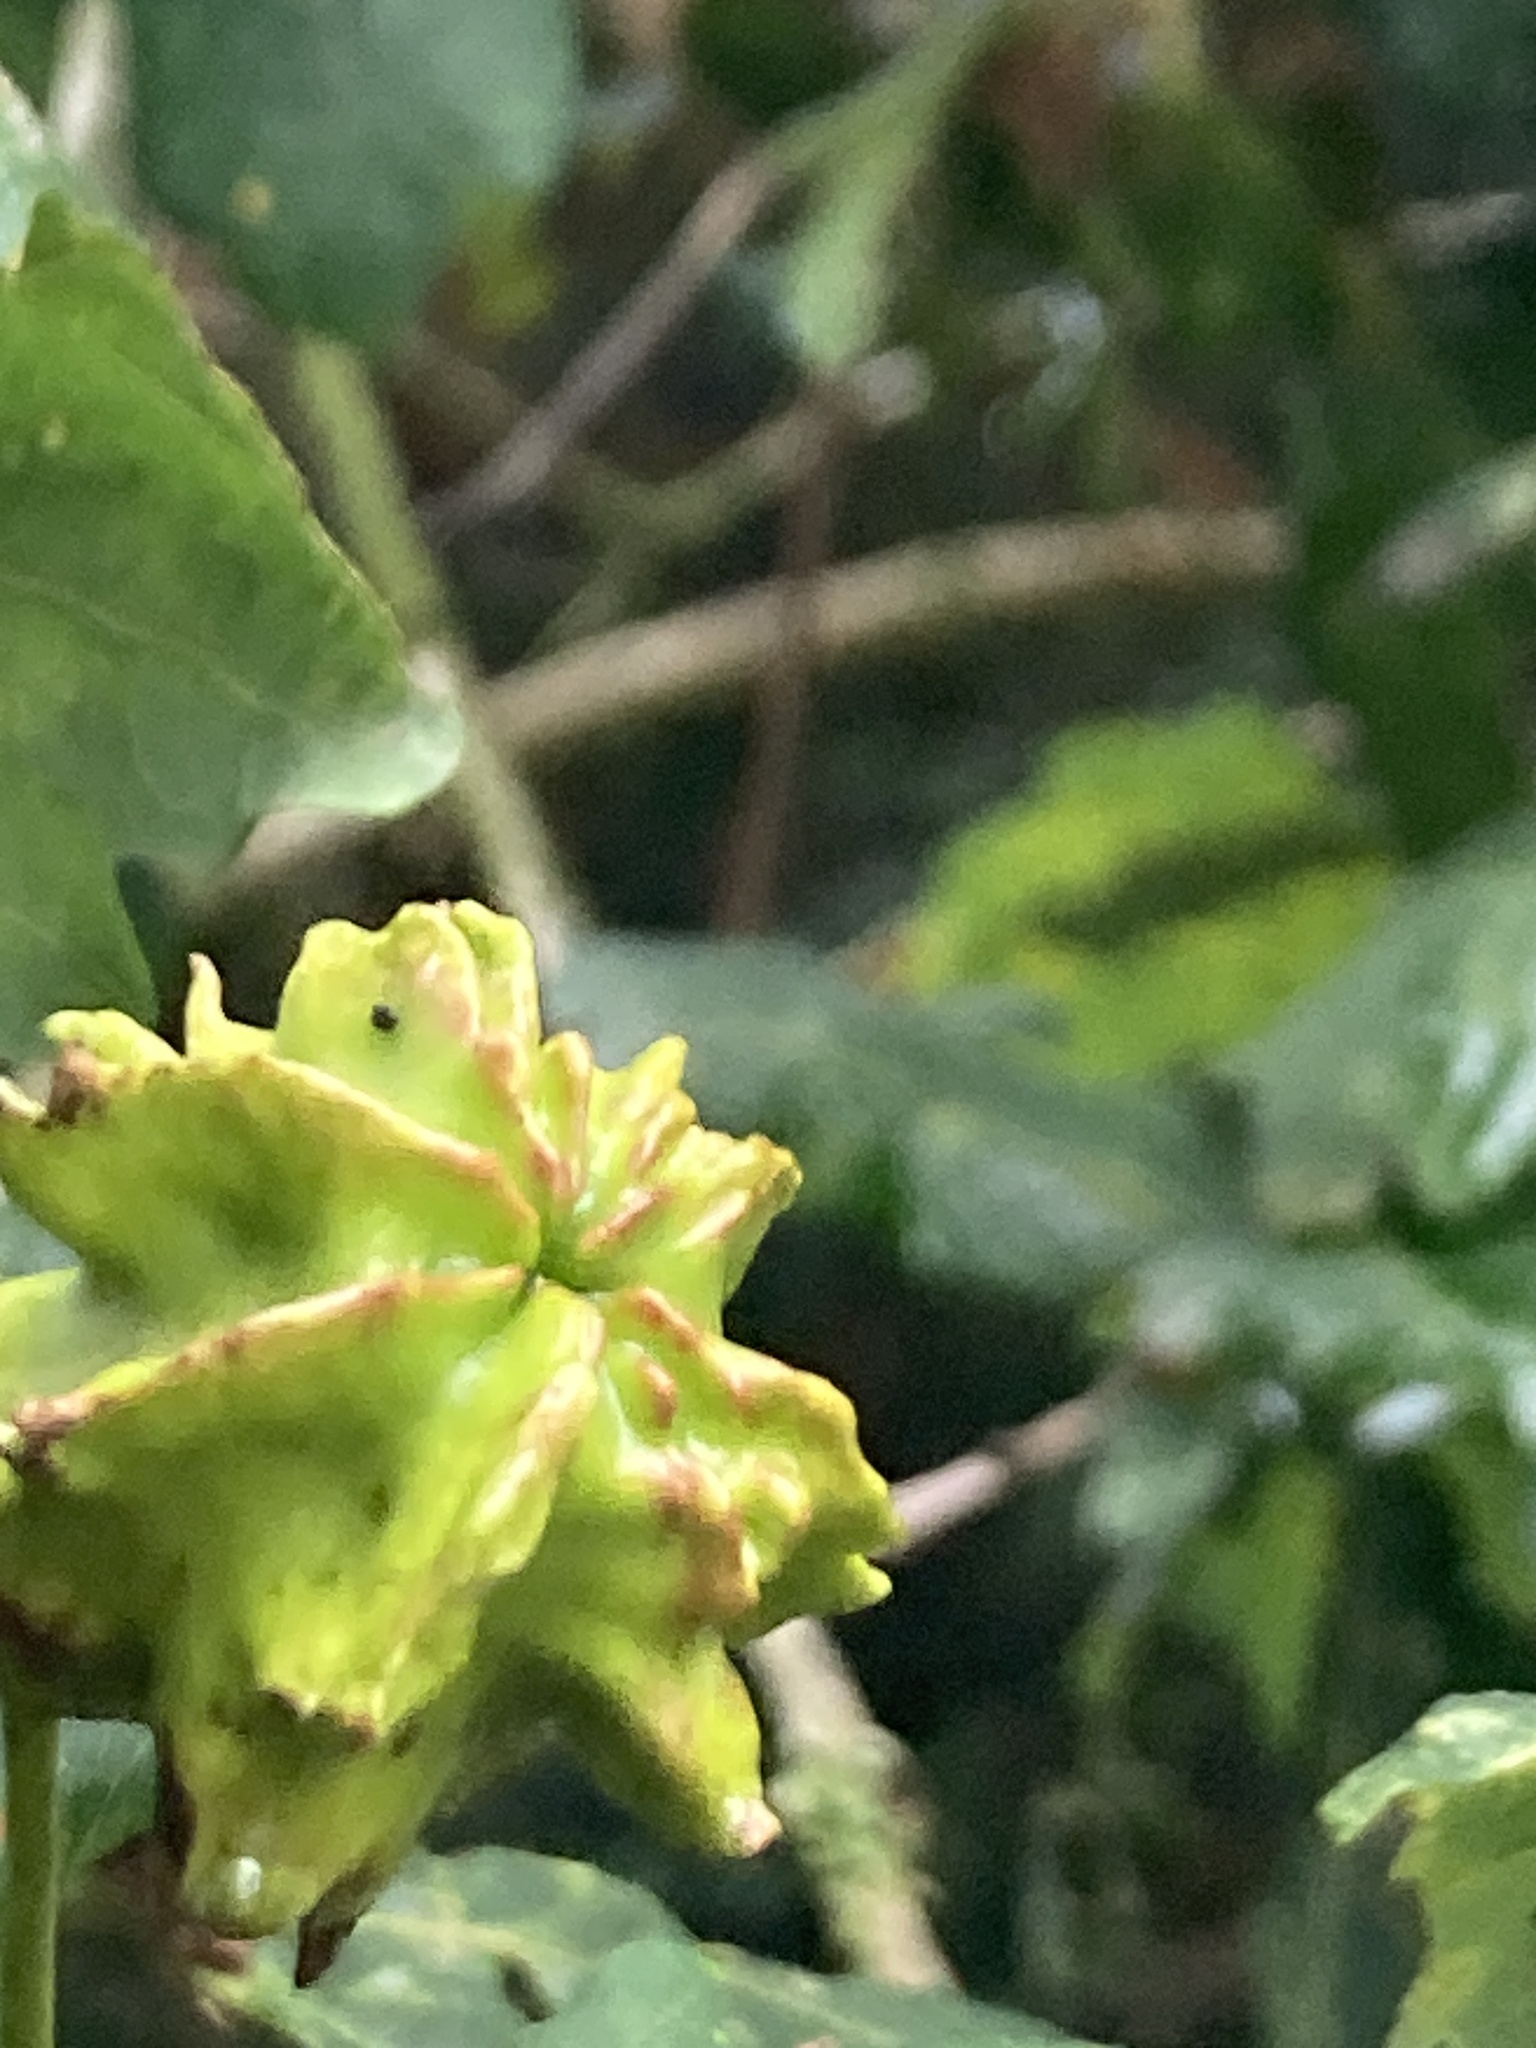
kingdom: Animalia
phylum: Arthropoda
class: Insecta
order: Hymenoptera
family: Cynipidae
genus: Andricus
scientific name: Andricus quercuscalicis
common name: Knopper gall
